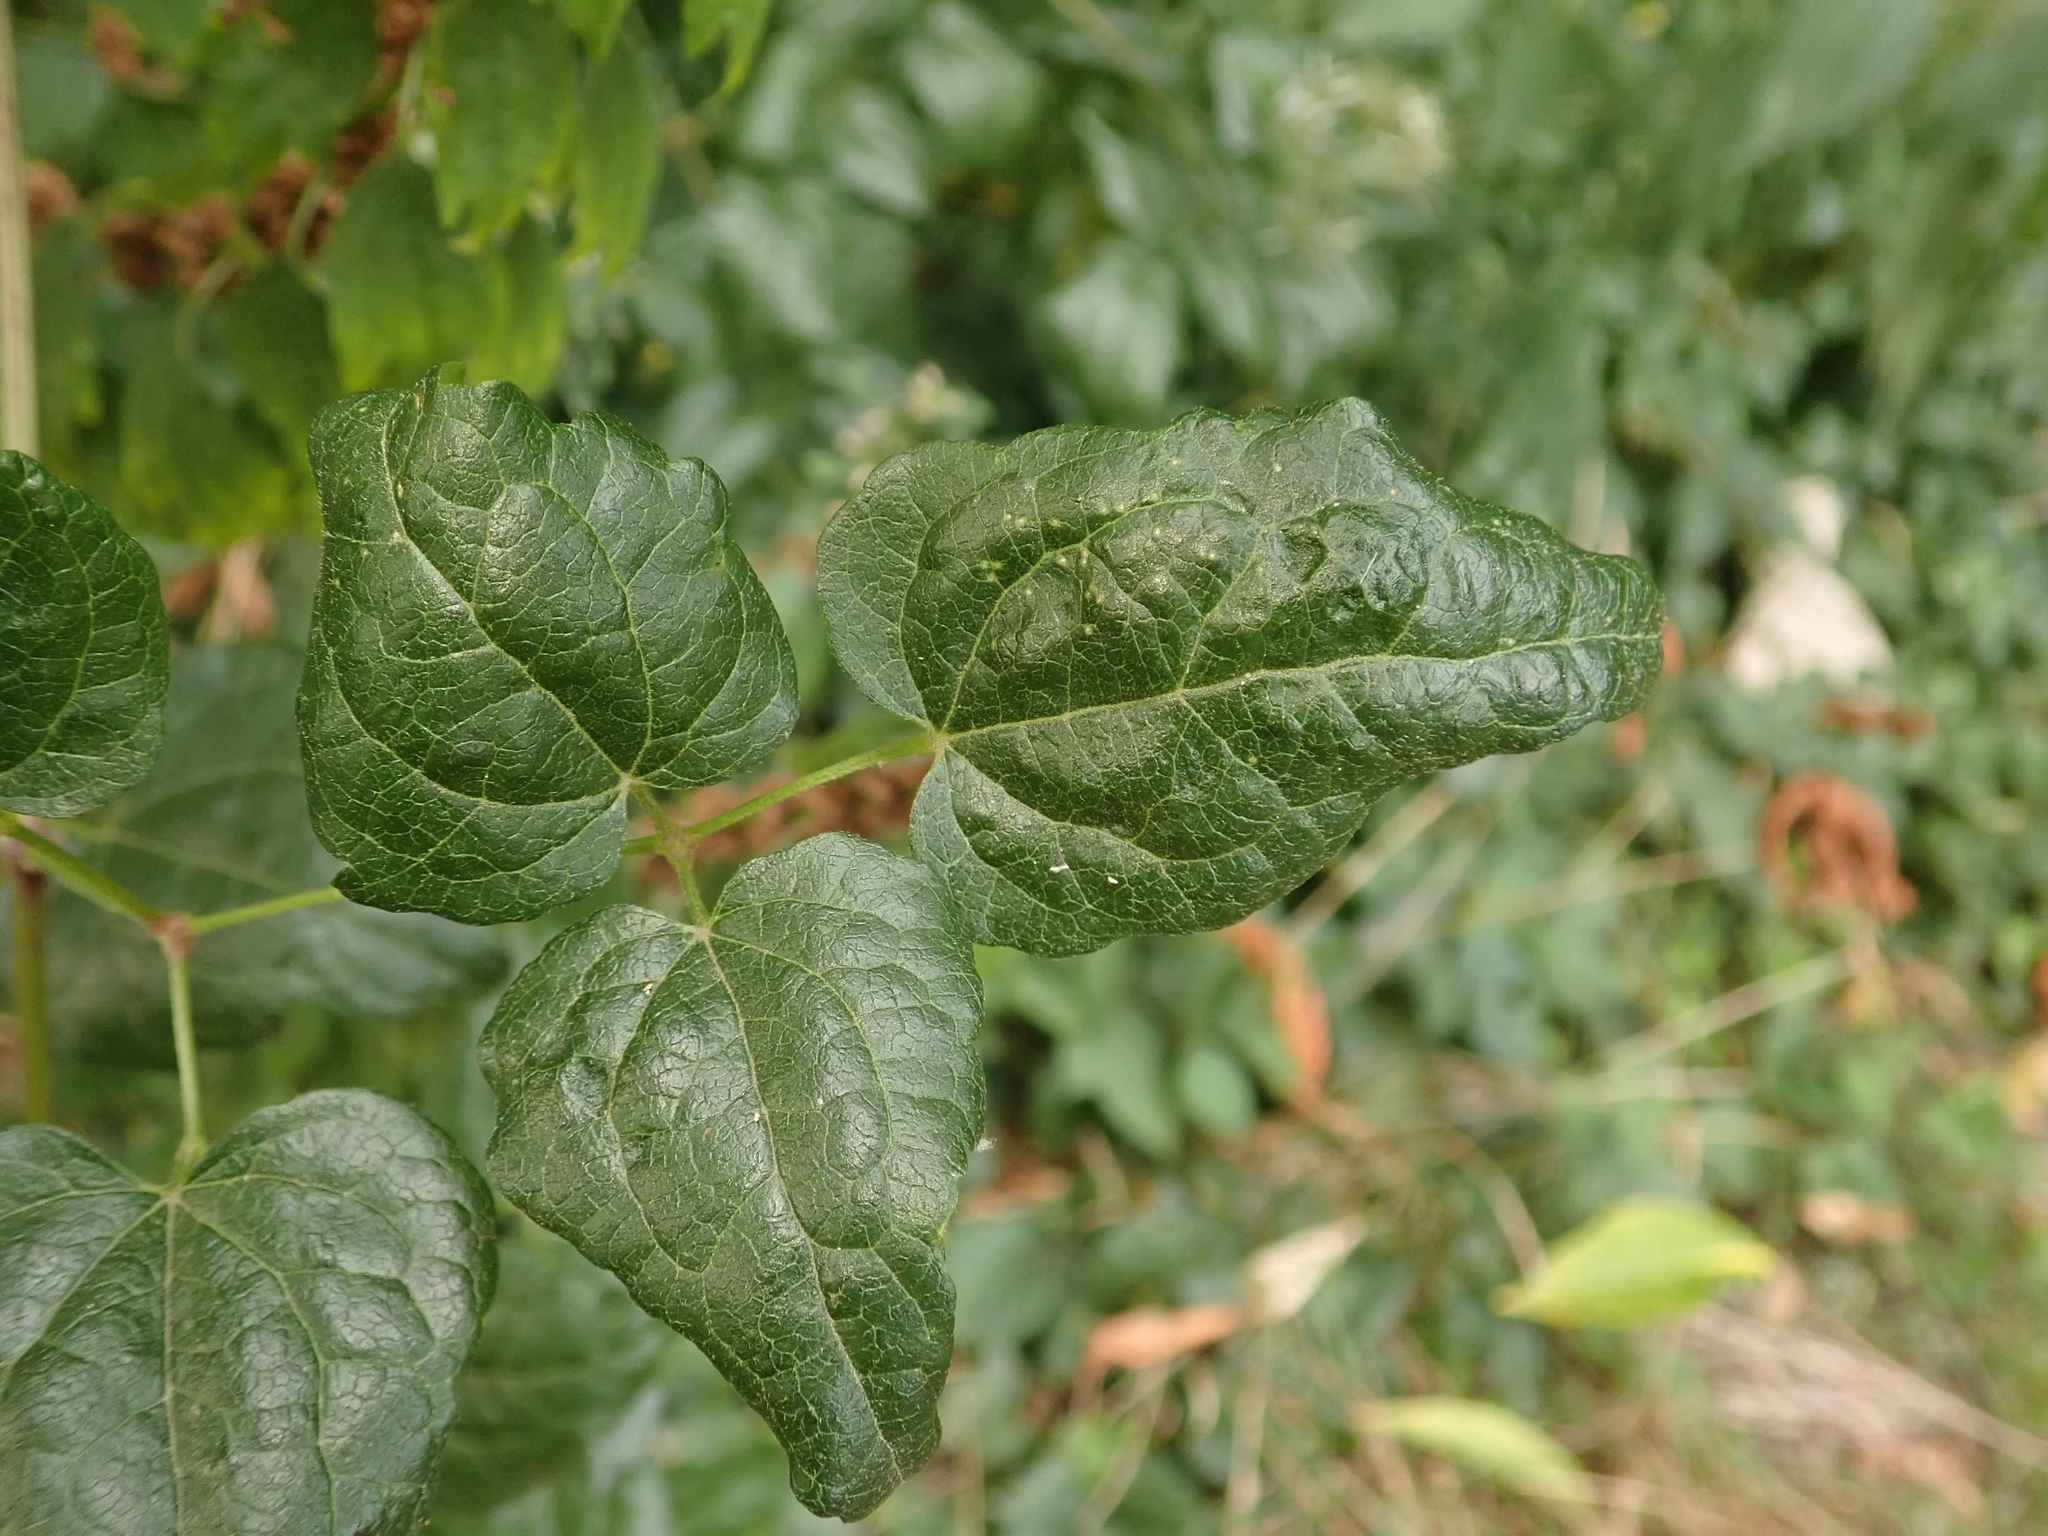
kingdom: Plantae
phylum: Tracheophyta
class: Magnoliopsida
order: Ranunculales
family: Ranunculaceae
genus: Clematis
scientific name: Clematis vitalba
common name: Evergreen clematis
